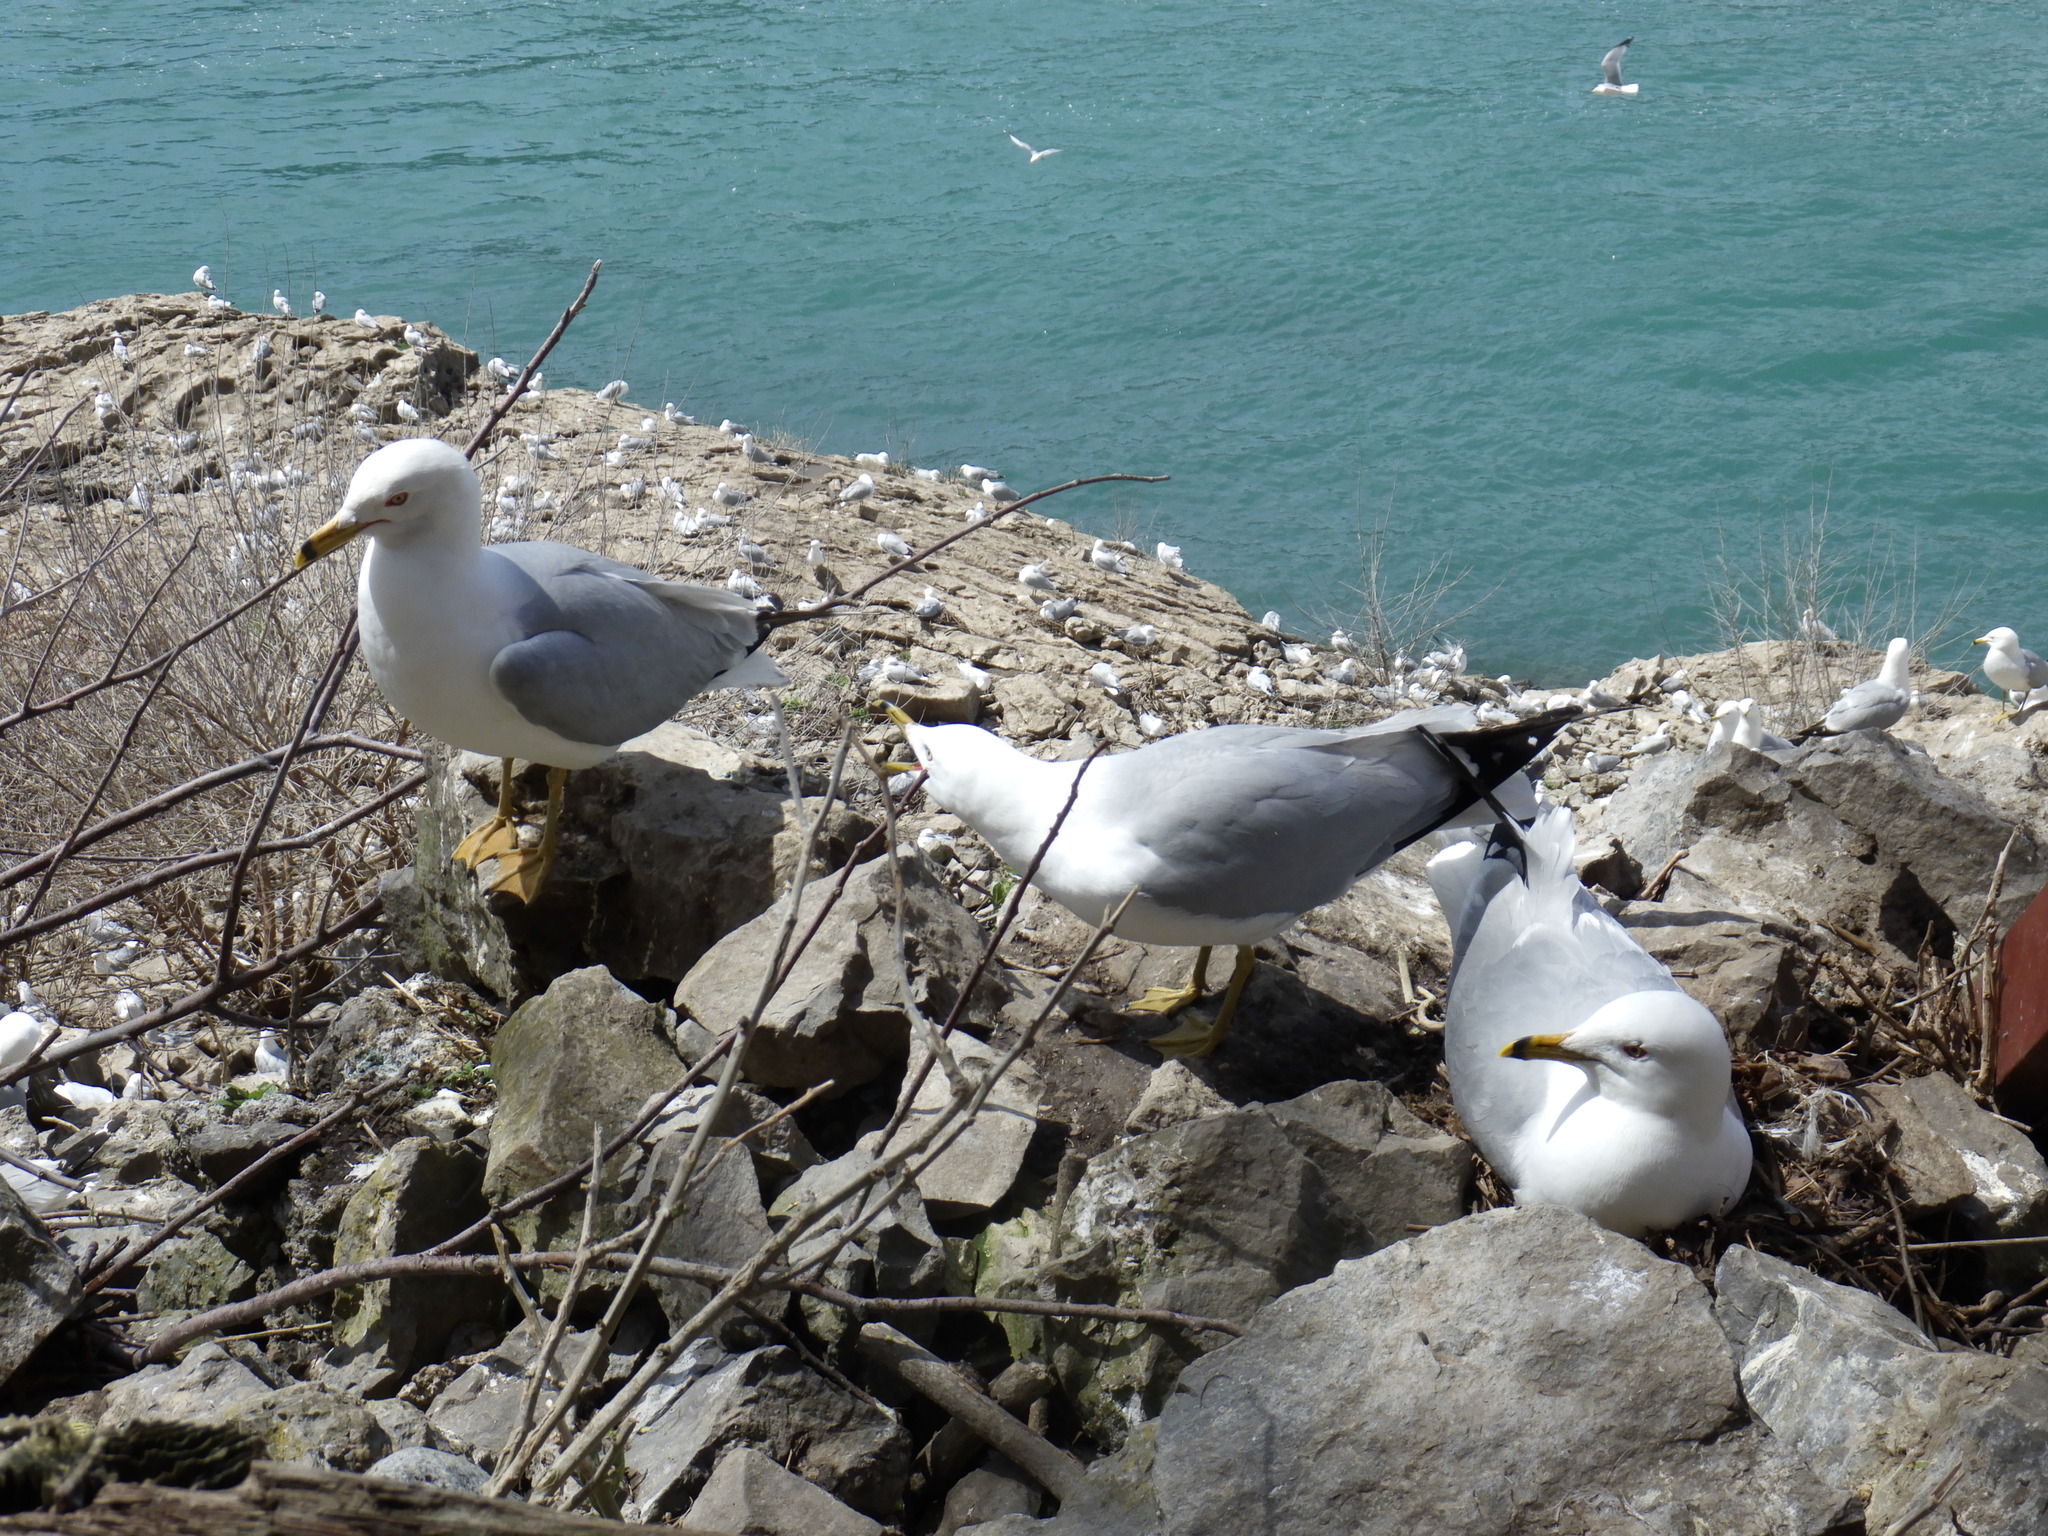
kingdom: Animalia
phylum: Chordata
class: Aves
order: Charadriiformes
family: Laridae
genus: Larus
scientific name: Larus delawarensis
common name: Ring-billed gull
